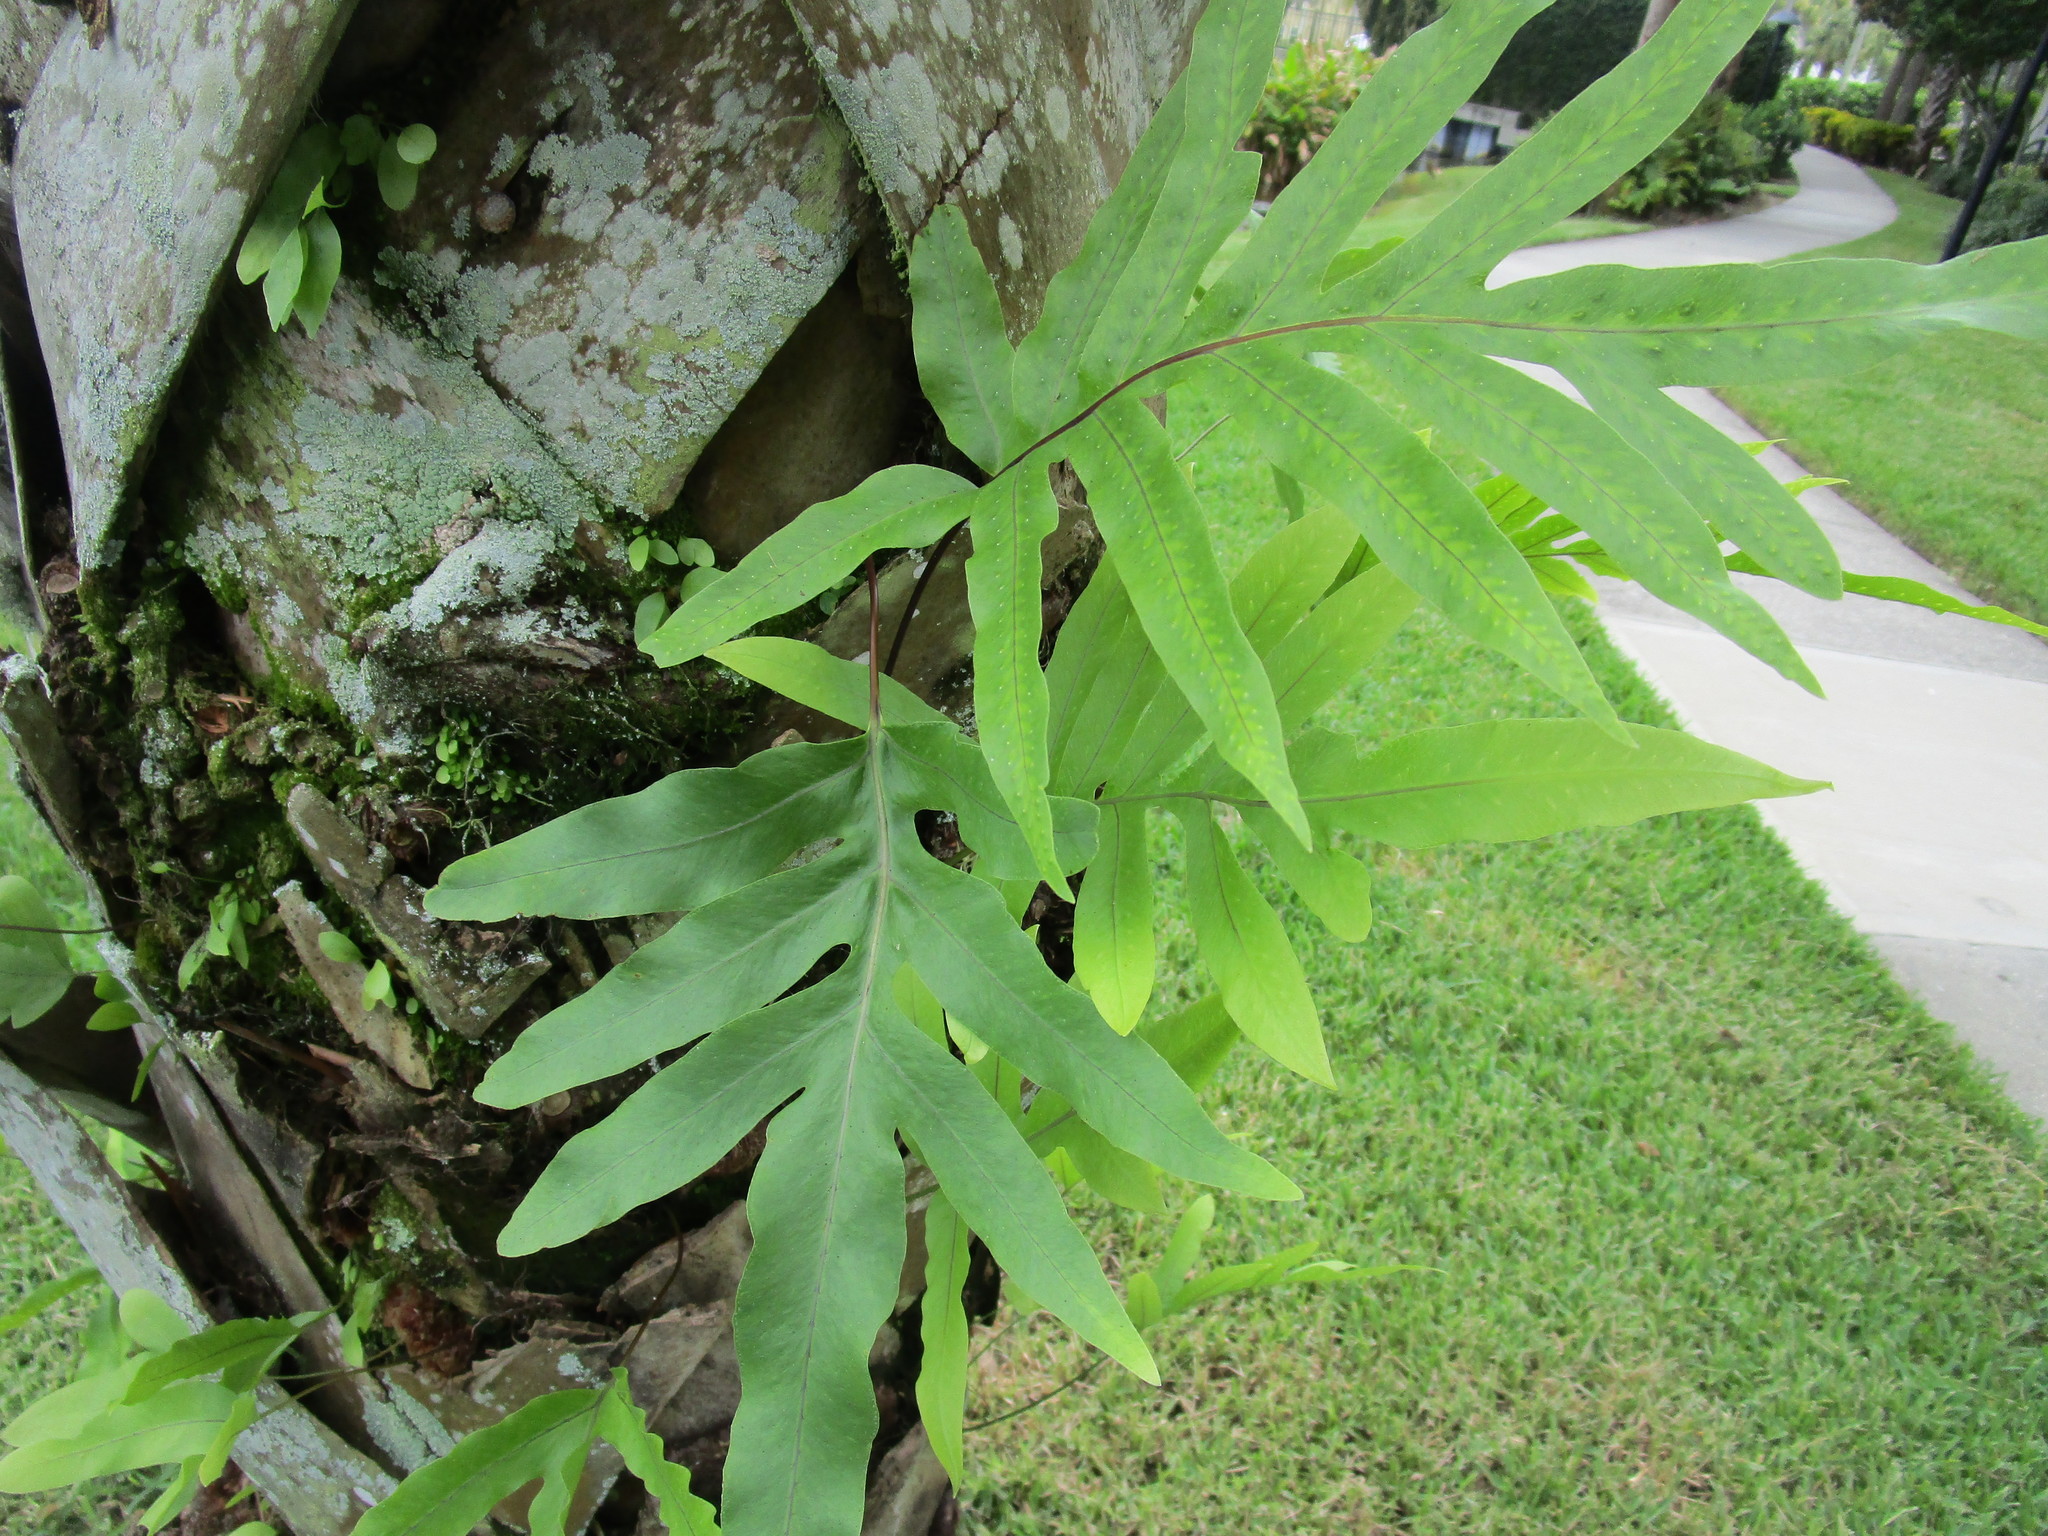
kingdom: Plantae
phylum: Tracheophyta
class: Polypodiopsida
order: Polypodiales
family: Polypodiaceae
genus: Phlebodium
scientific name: Phlebodium aureum
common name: Gold-foot fern
